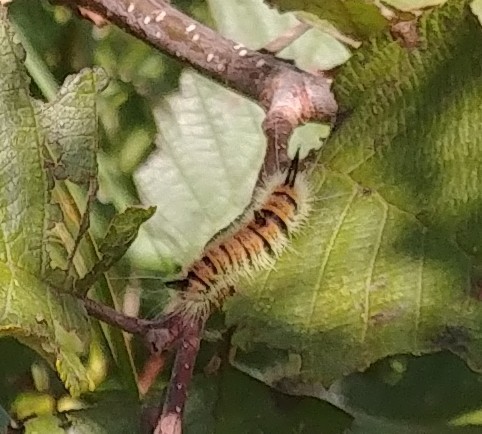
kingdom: Animalia
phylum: Arthropoda
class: Insecta
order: Lepidoptera
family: Noctuidae
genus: Acronicta
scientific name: Acronicta insita
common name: Large gray dagger
